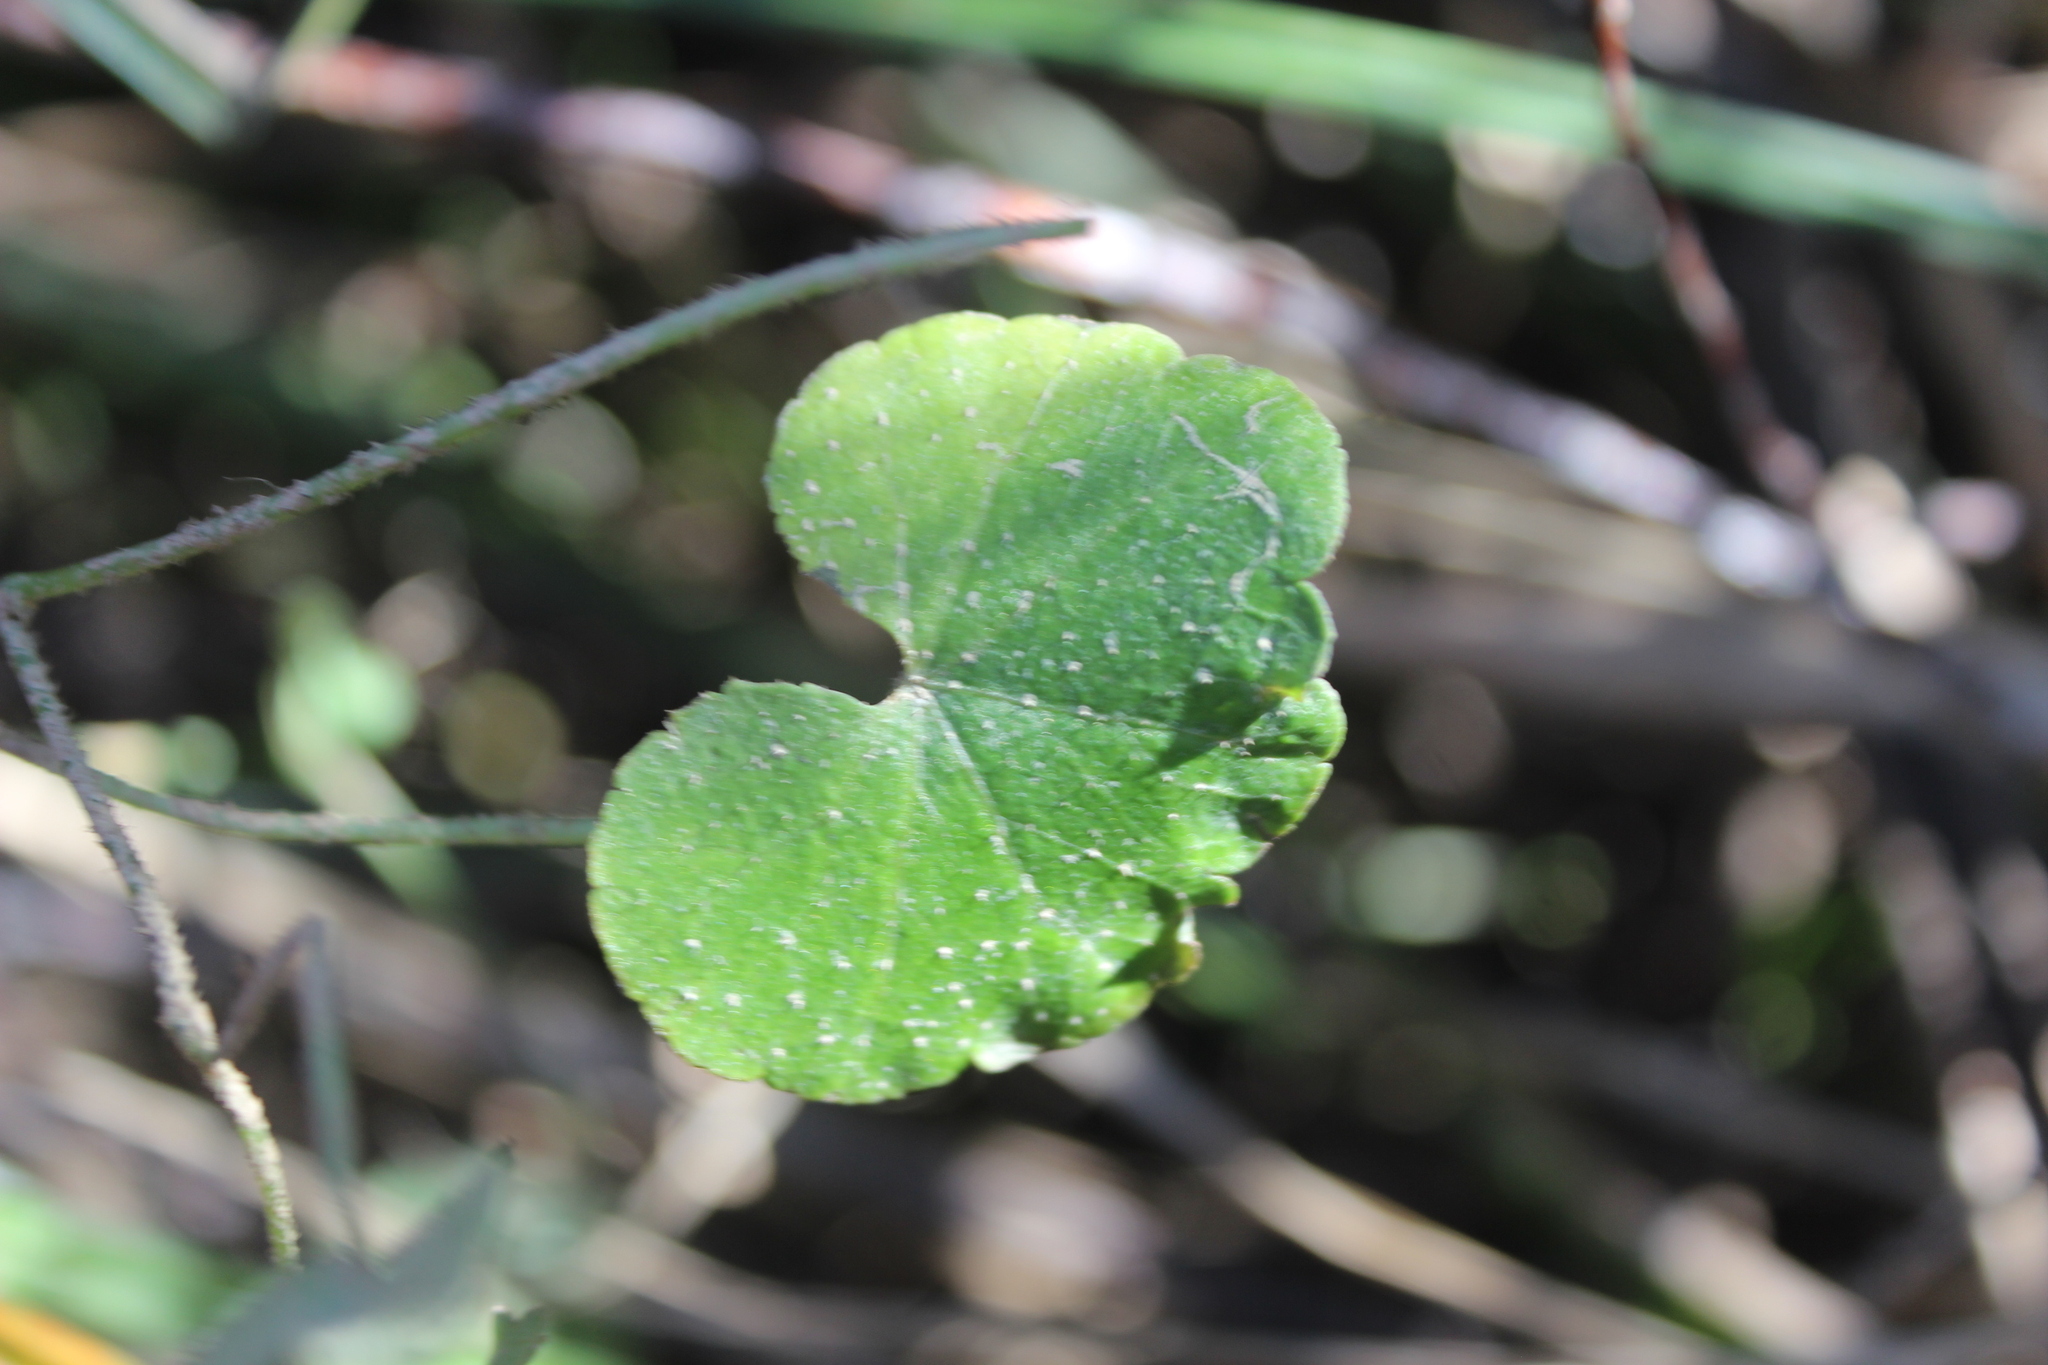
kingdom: Plantae
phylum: Tracheophyta
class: Magnoliopsida
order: Apiales
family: Araliaceae
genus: Hydrocotyle
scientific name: Hydrocotyle novae-zeelandiae
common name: New zealand pennywort
